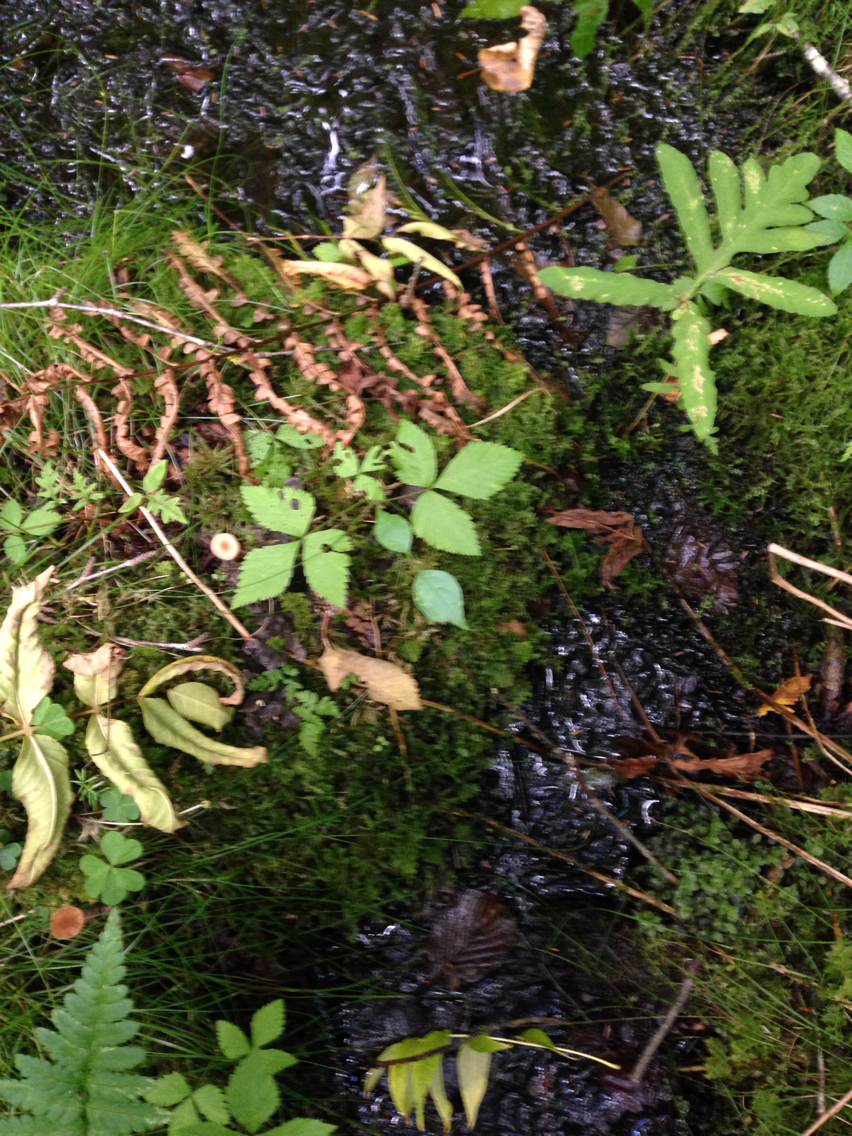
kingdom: Plantae
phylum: Tracheophyta
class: Magnoliopsida
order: Rosales
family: Rosaceae
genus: Rubus
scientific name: Rubus pubescens
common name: Dwarf raspberry
